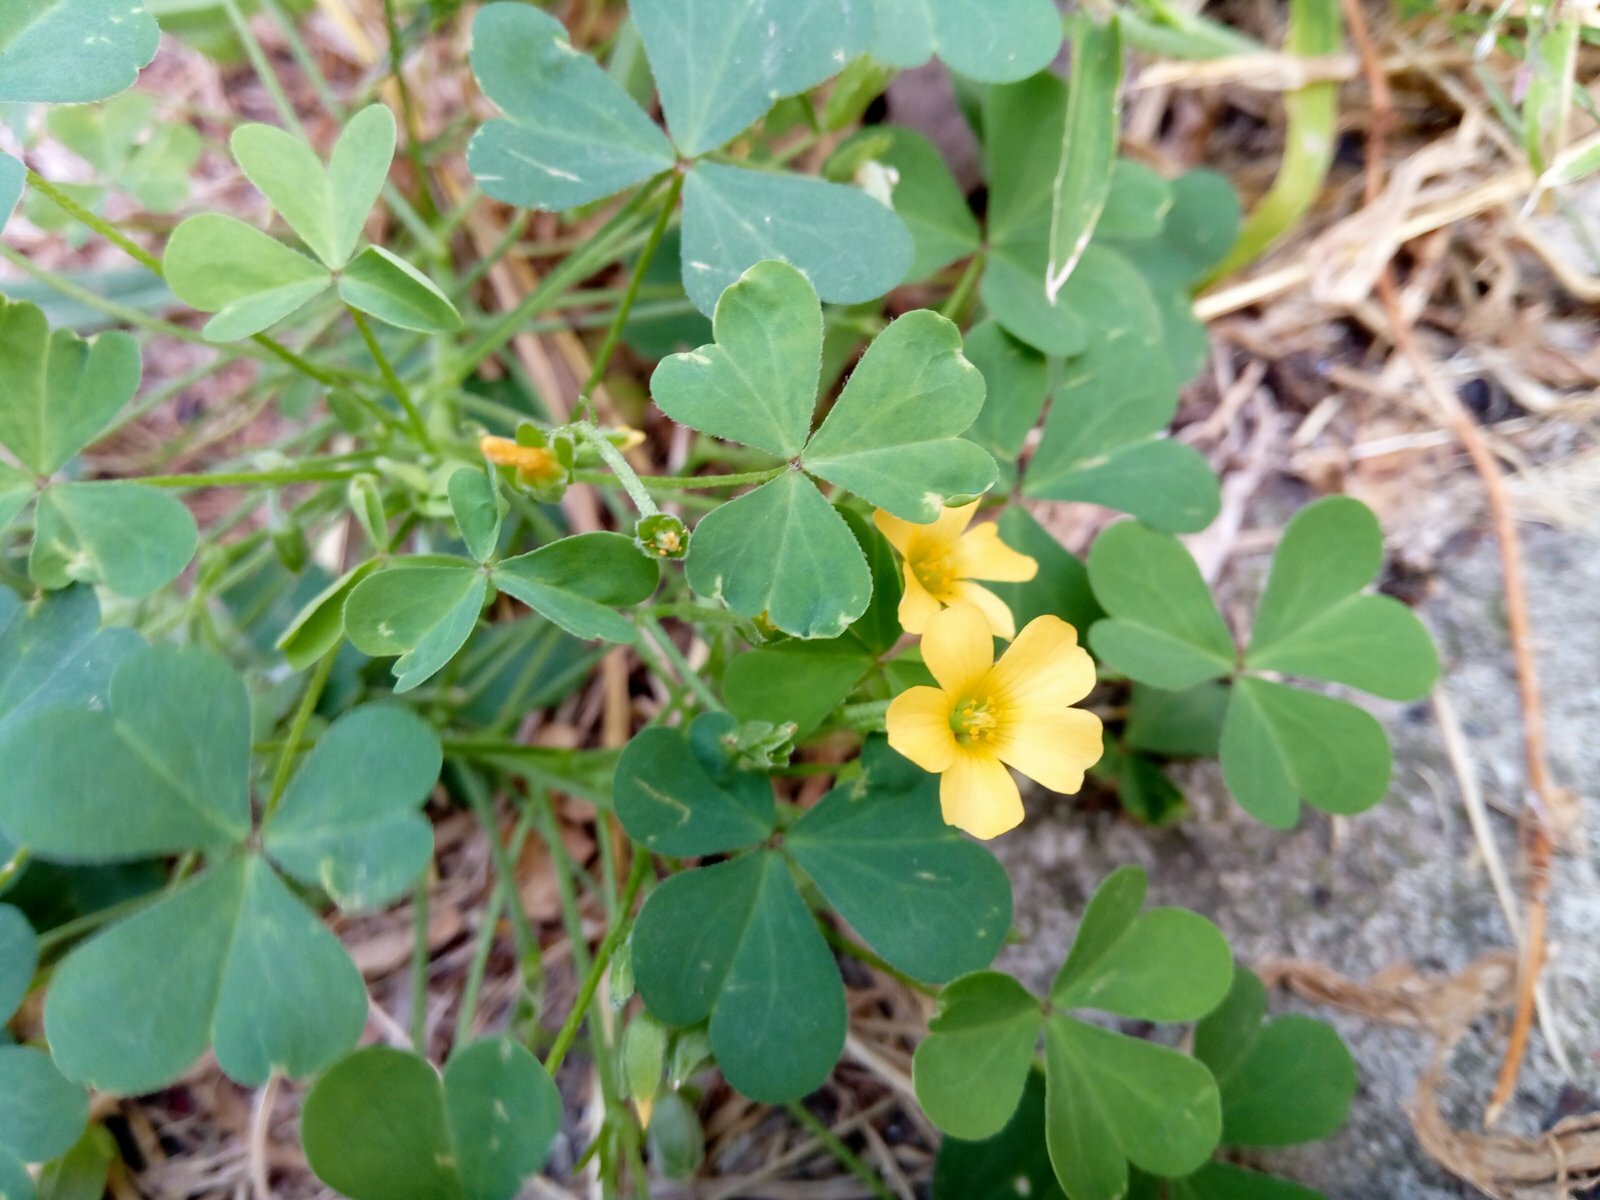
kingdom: Plantae
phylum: Tracheophyta
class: Magnoliopsida
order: Oxalidales
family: Oxalidaceae
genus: Oxalis
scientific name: Oxalis dillenii
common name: Sussex yellow-sorrel
